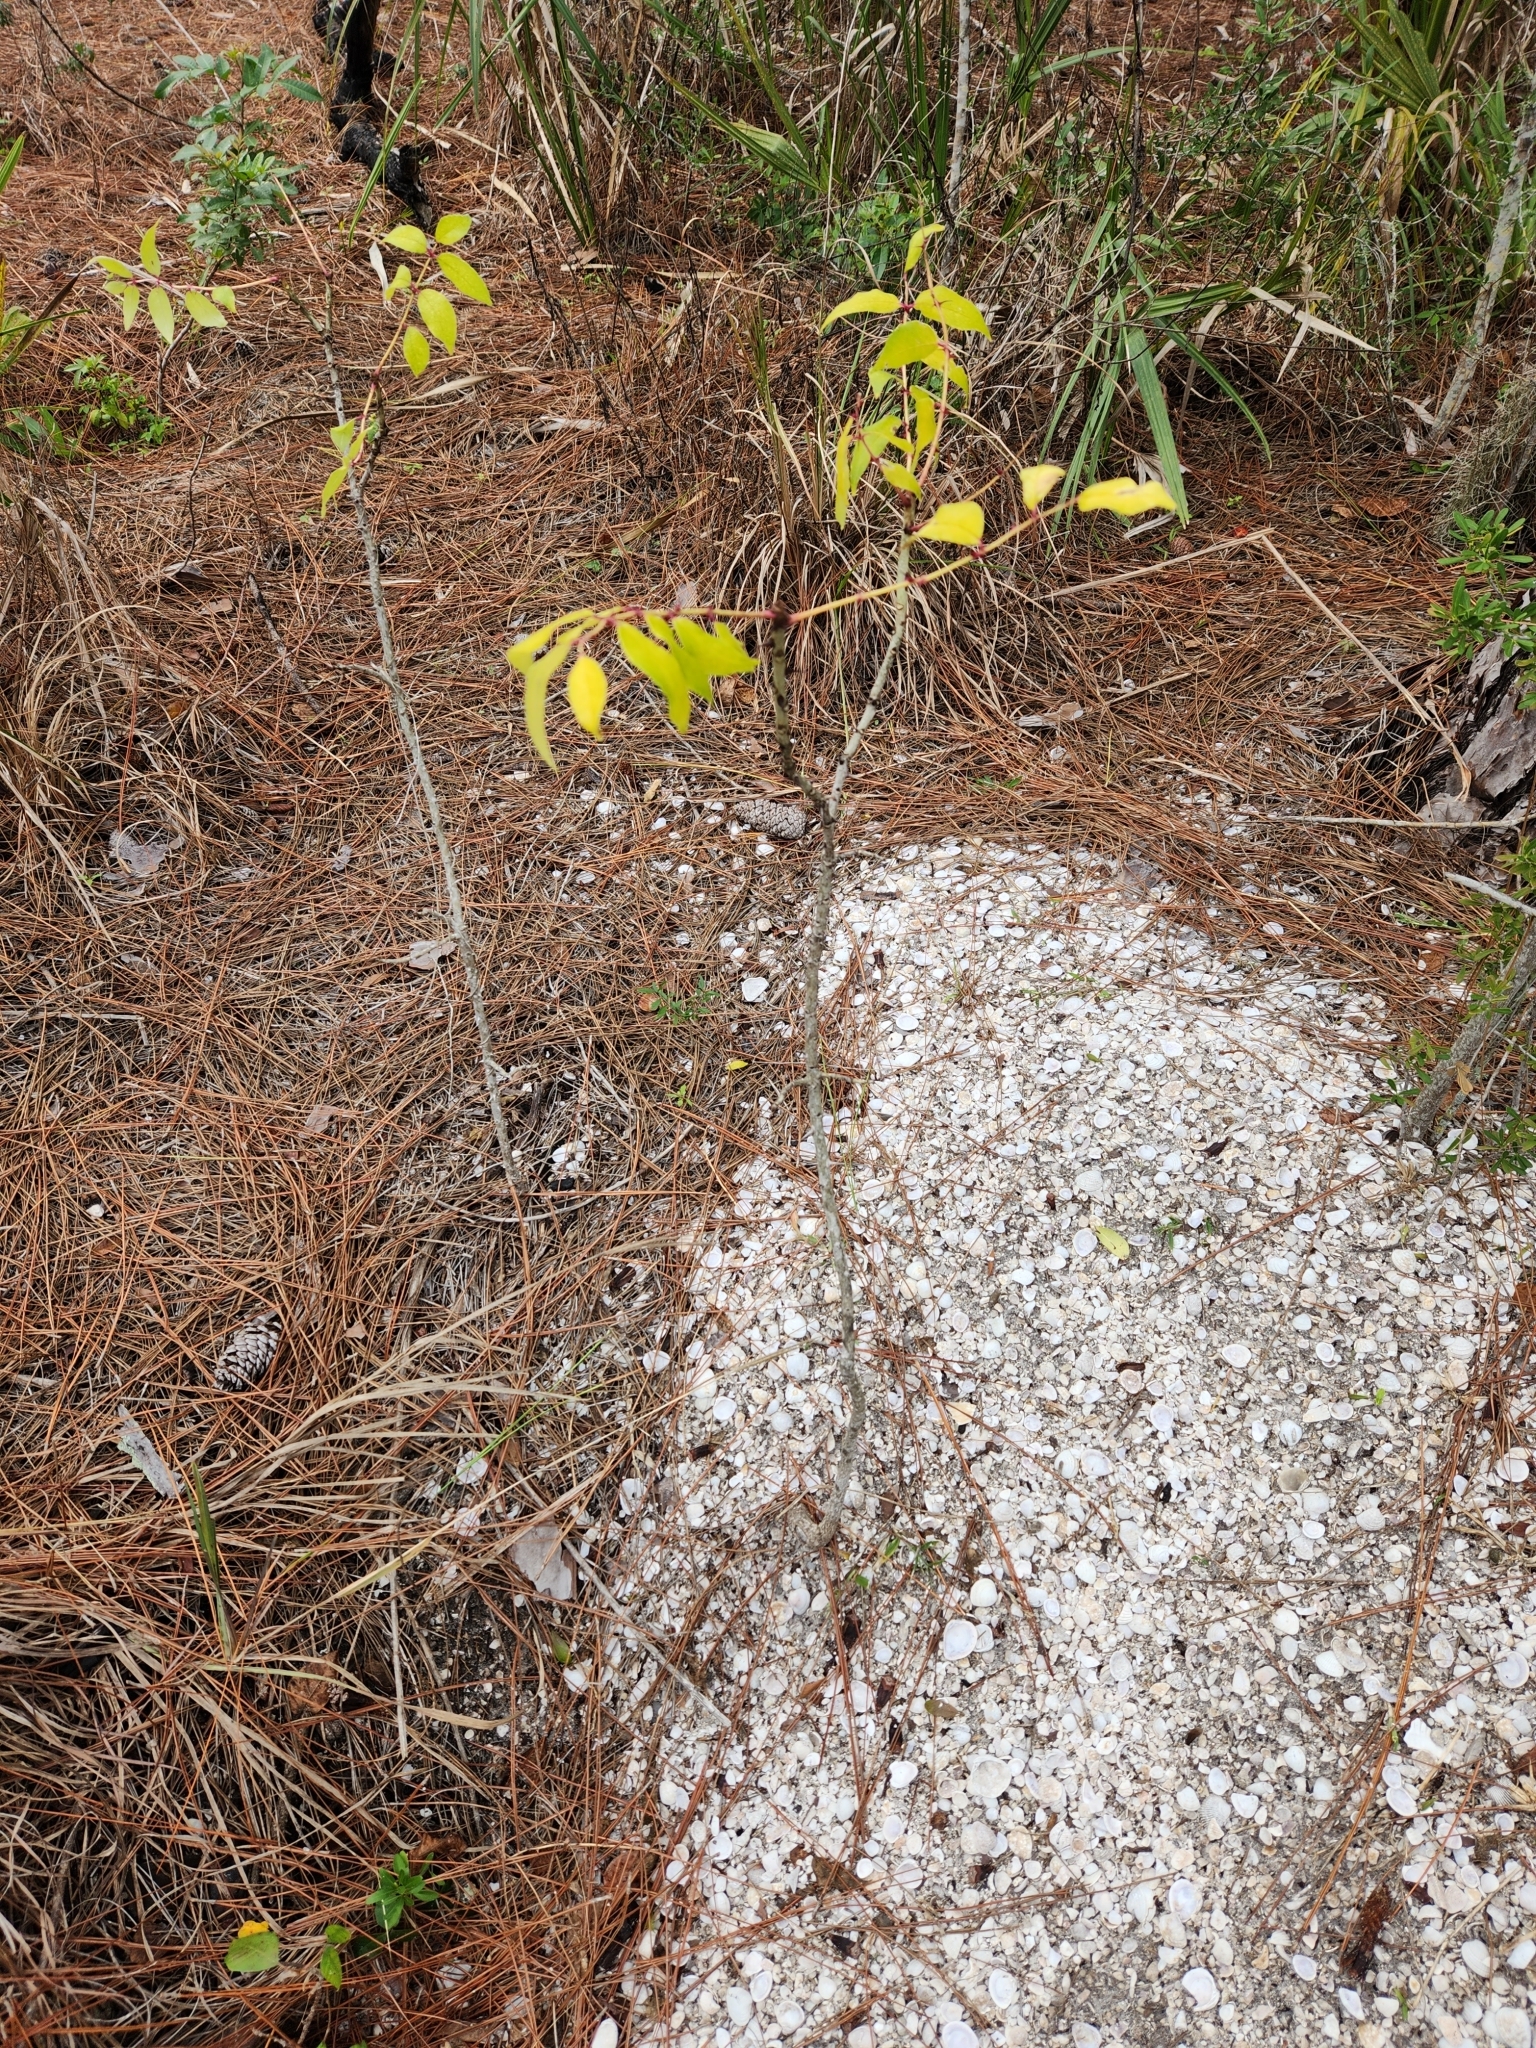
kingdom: Plantae
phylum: Tracheophyta
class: Magnoliopsida
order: Sapindales
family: Rutaceae
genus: Zanthoxylum
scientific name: Zanthoxylum clava-herculis
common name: Hercules'-club
